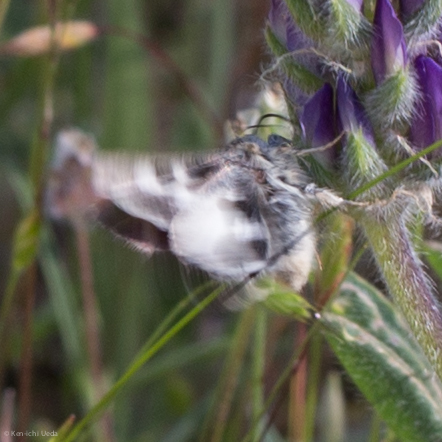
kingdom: Animalia
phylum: Arthropoda
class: Insecta
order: Lepidoptera
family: Noctuidae
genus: Schinia
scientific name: Schinia suetus
